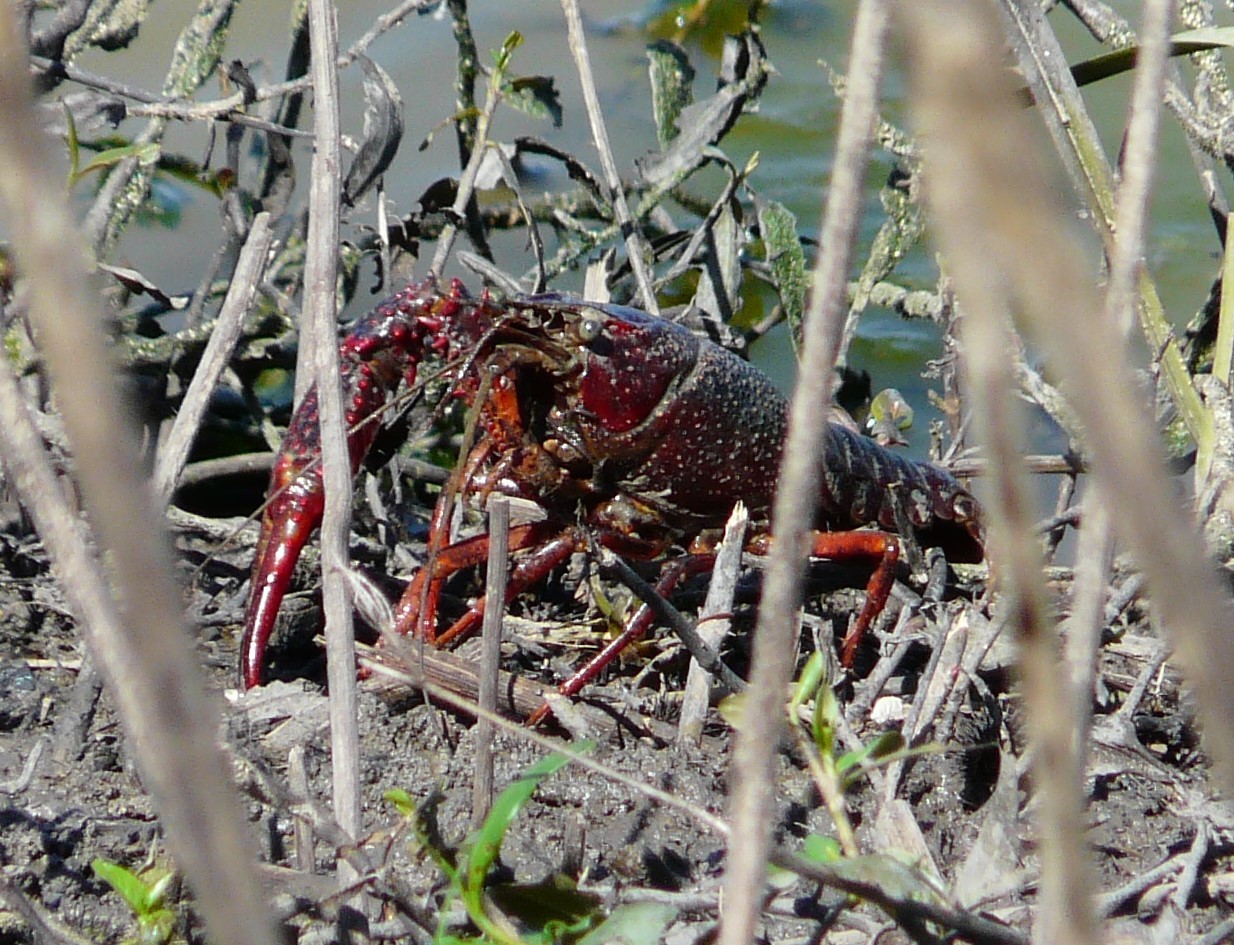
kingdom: Animalia
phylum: Arthropoda
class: Malacostraca
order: Decapoda
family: Cambaridae
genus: Procambarus
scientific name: Procambarus clarkii
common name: Red swamp crayfish
